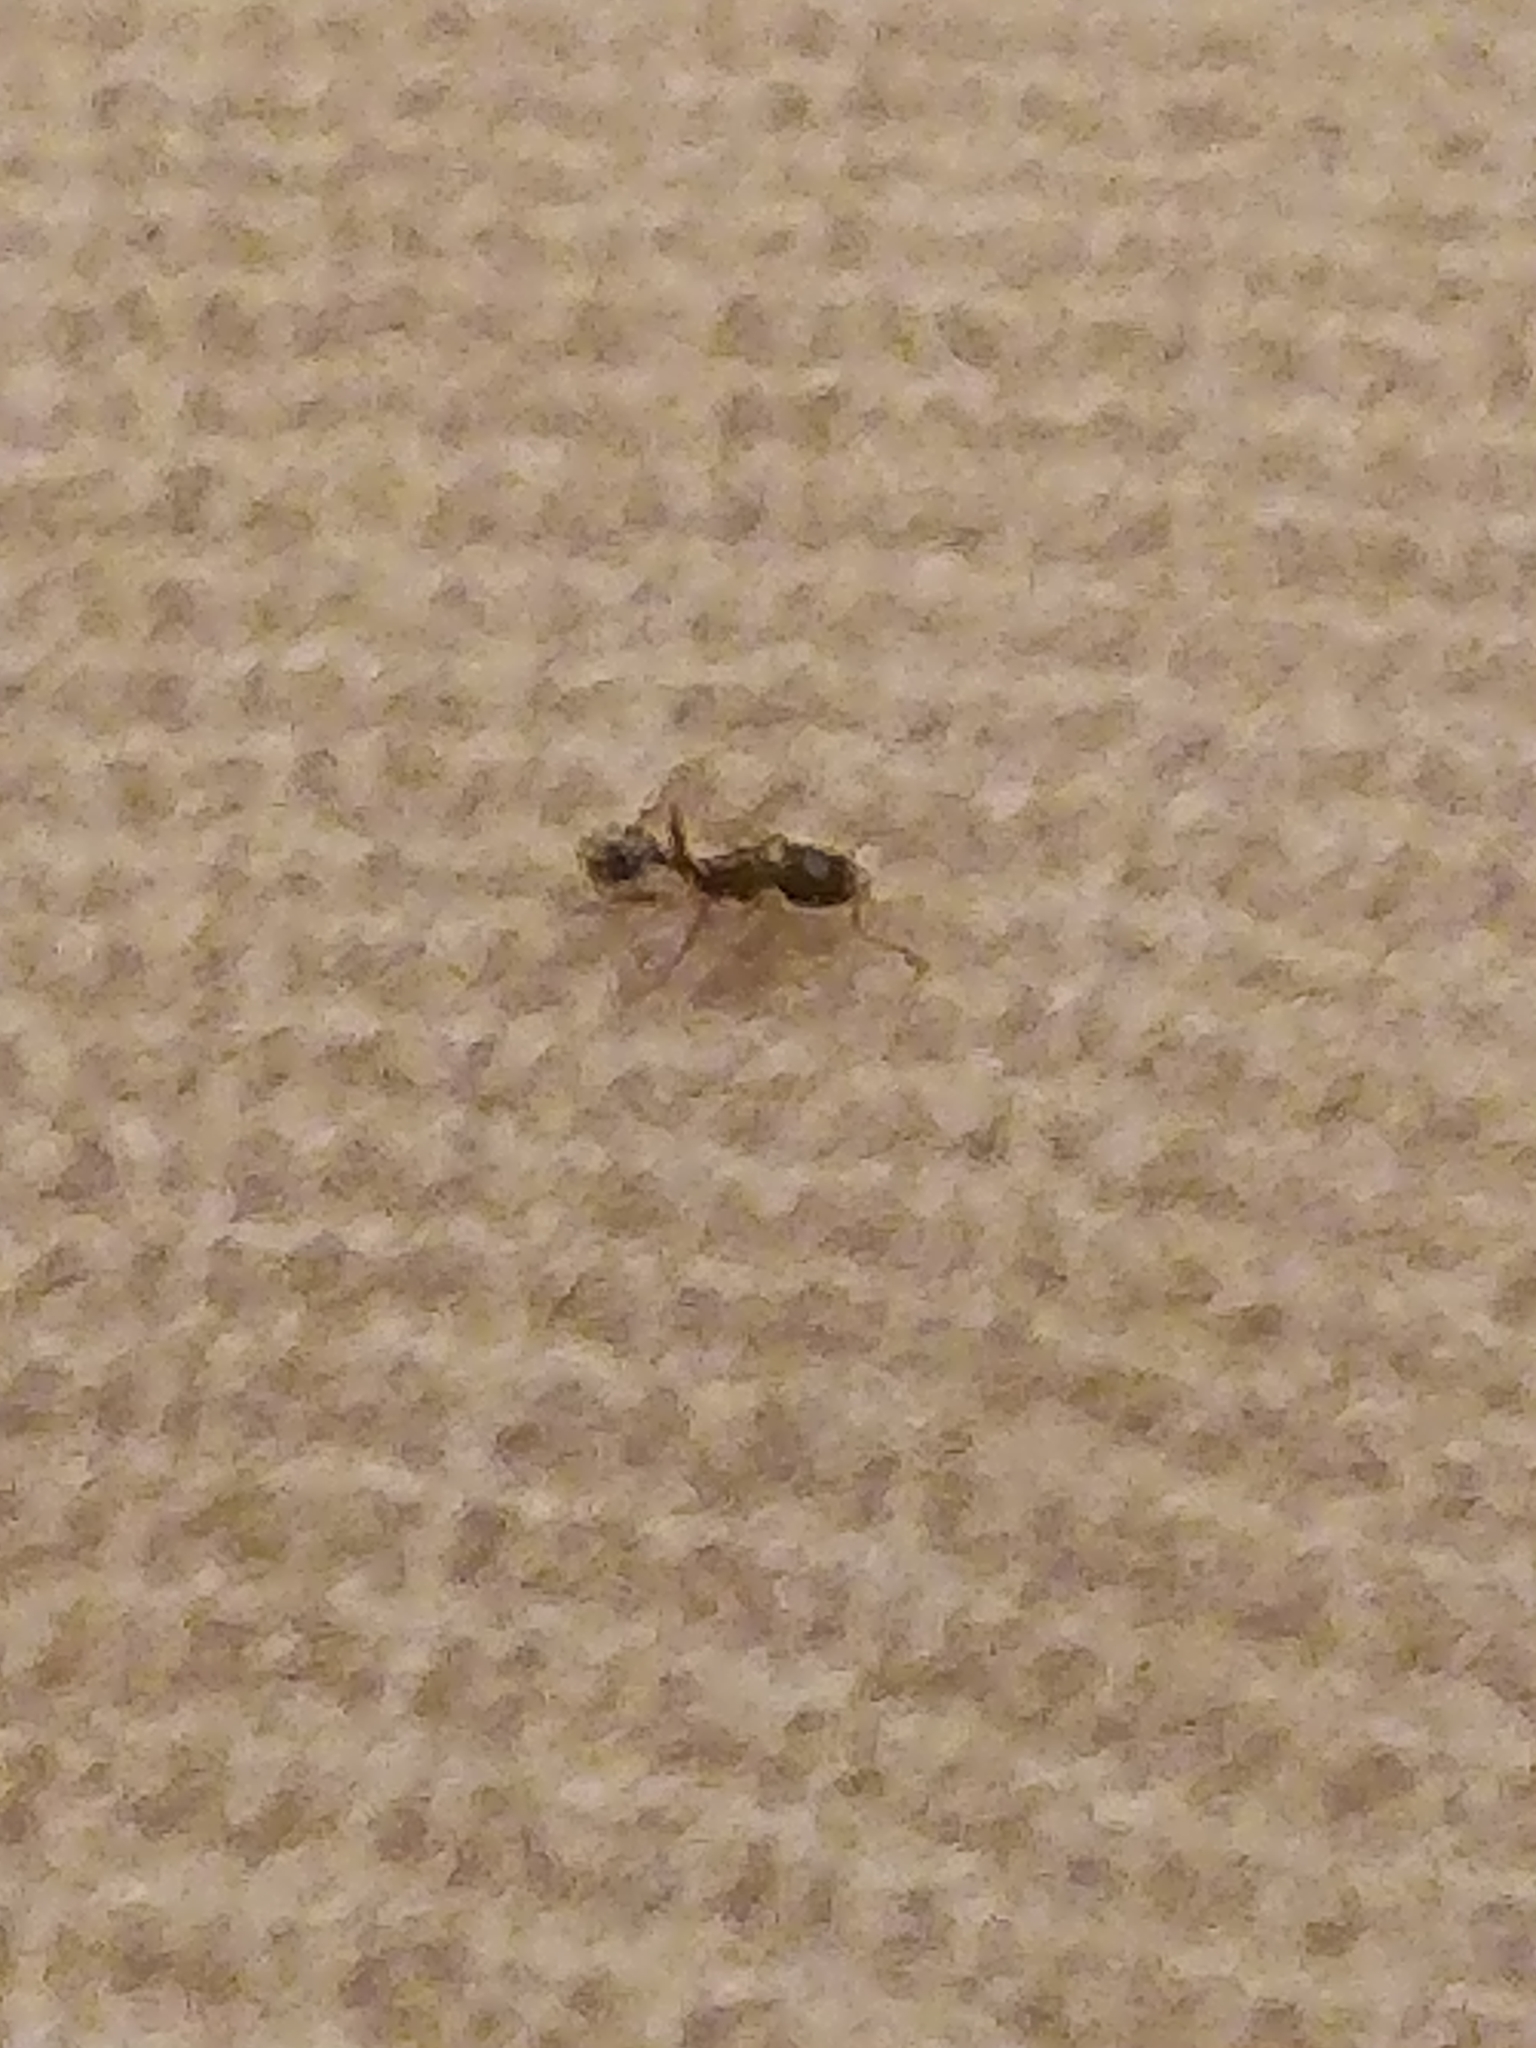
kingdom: Animalia
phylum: Arthropoda
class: Insecta
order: Hymenoptera
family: Formicidae
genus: Tetramorium
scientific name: Tetramorium immigrans
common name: Pavement ant
